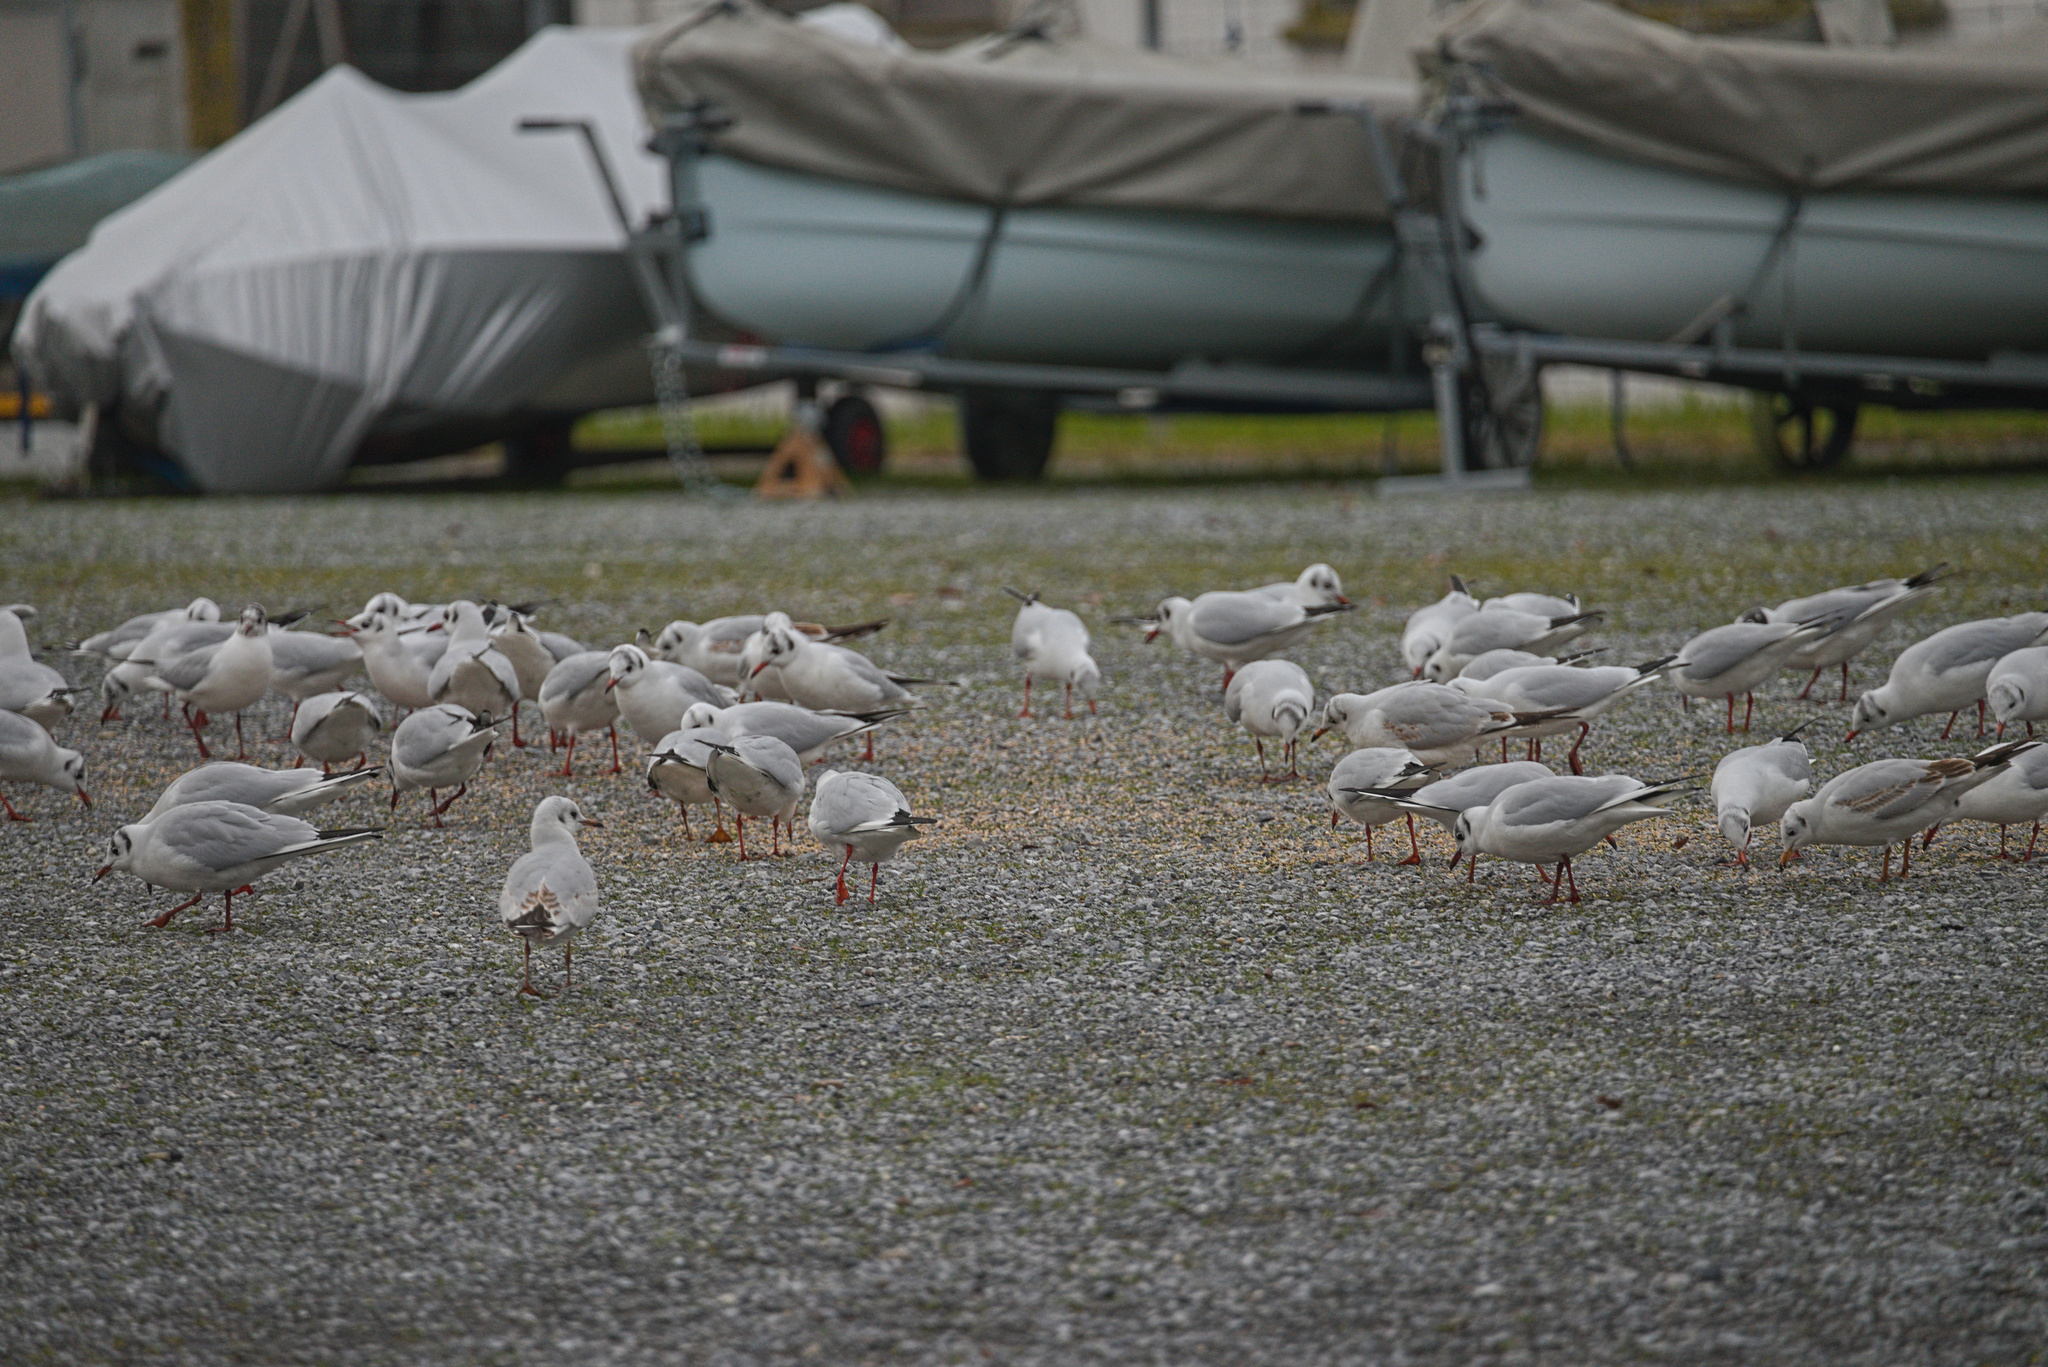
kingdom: Animalia
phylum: Chordata
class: Aves
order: Charadriiformes
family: Laridae
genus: Chroicocephalus
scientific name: Chroicocephalus ridibundus
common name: Black-headed gull
